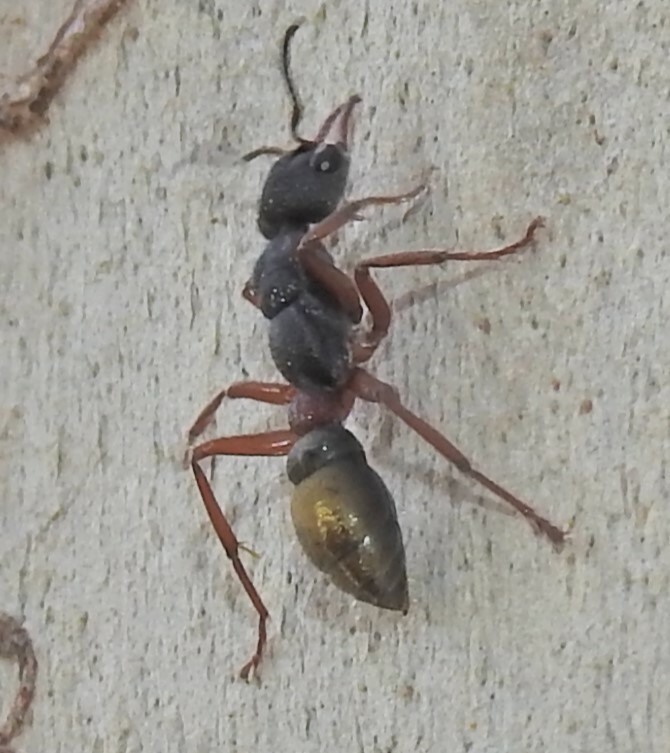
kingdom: Animalia
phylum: Arthropoda
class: Insecta
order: Hymenoptera
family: Formicidae
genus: Myrmecia
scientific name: Myrmecia chrysogaster
